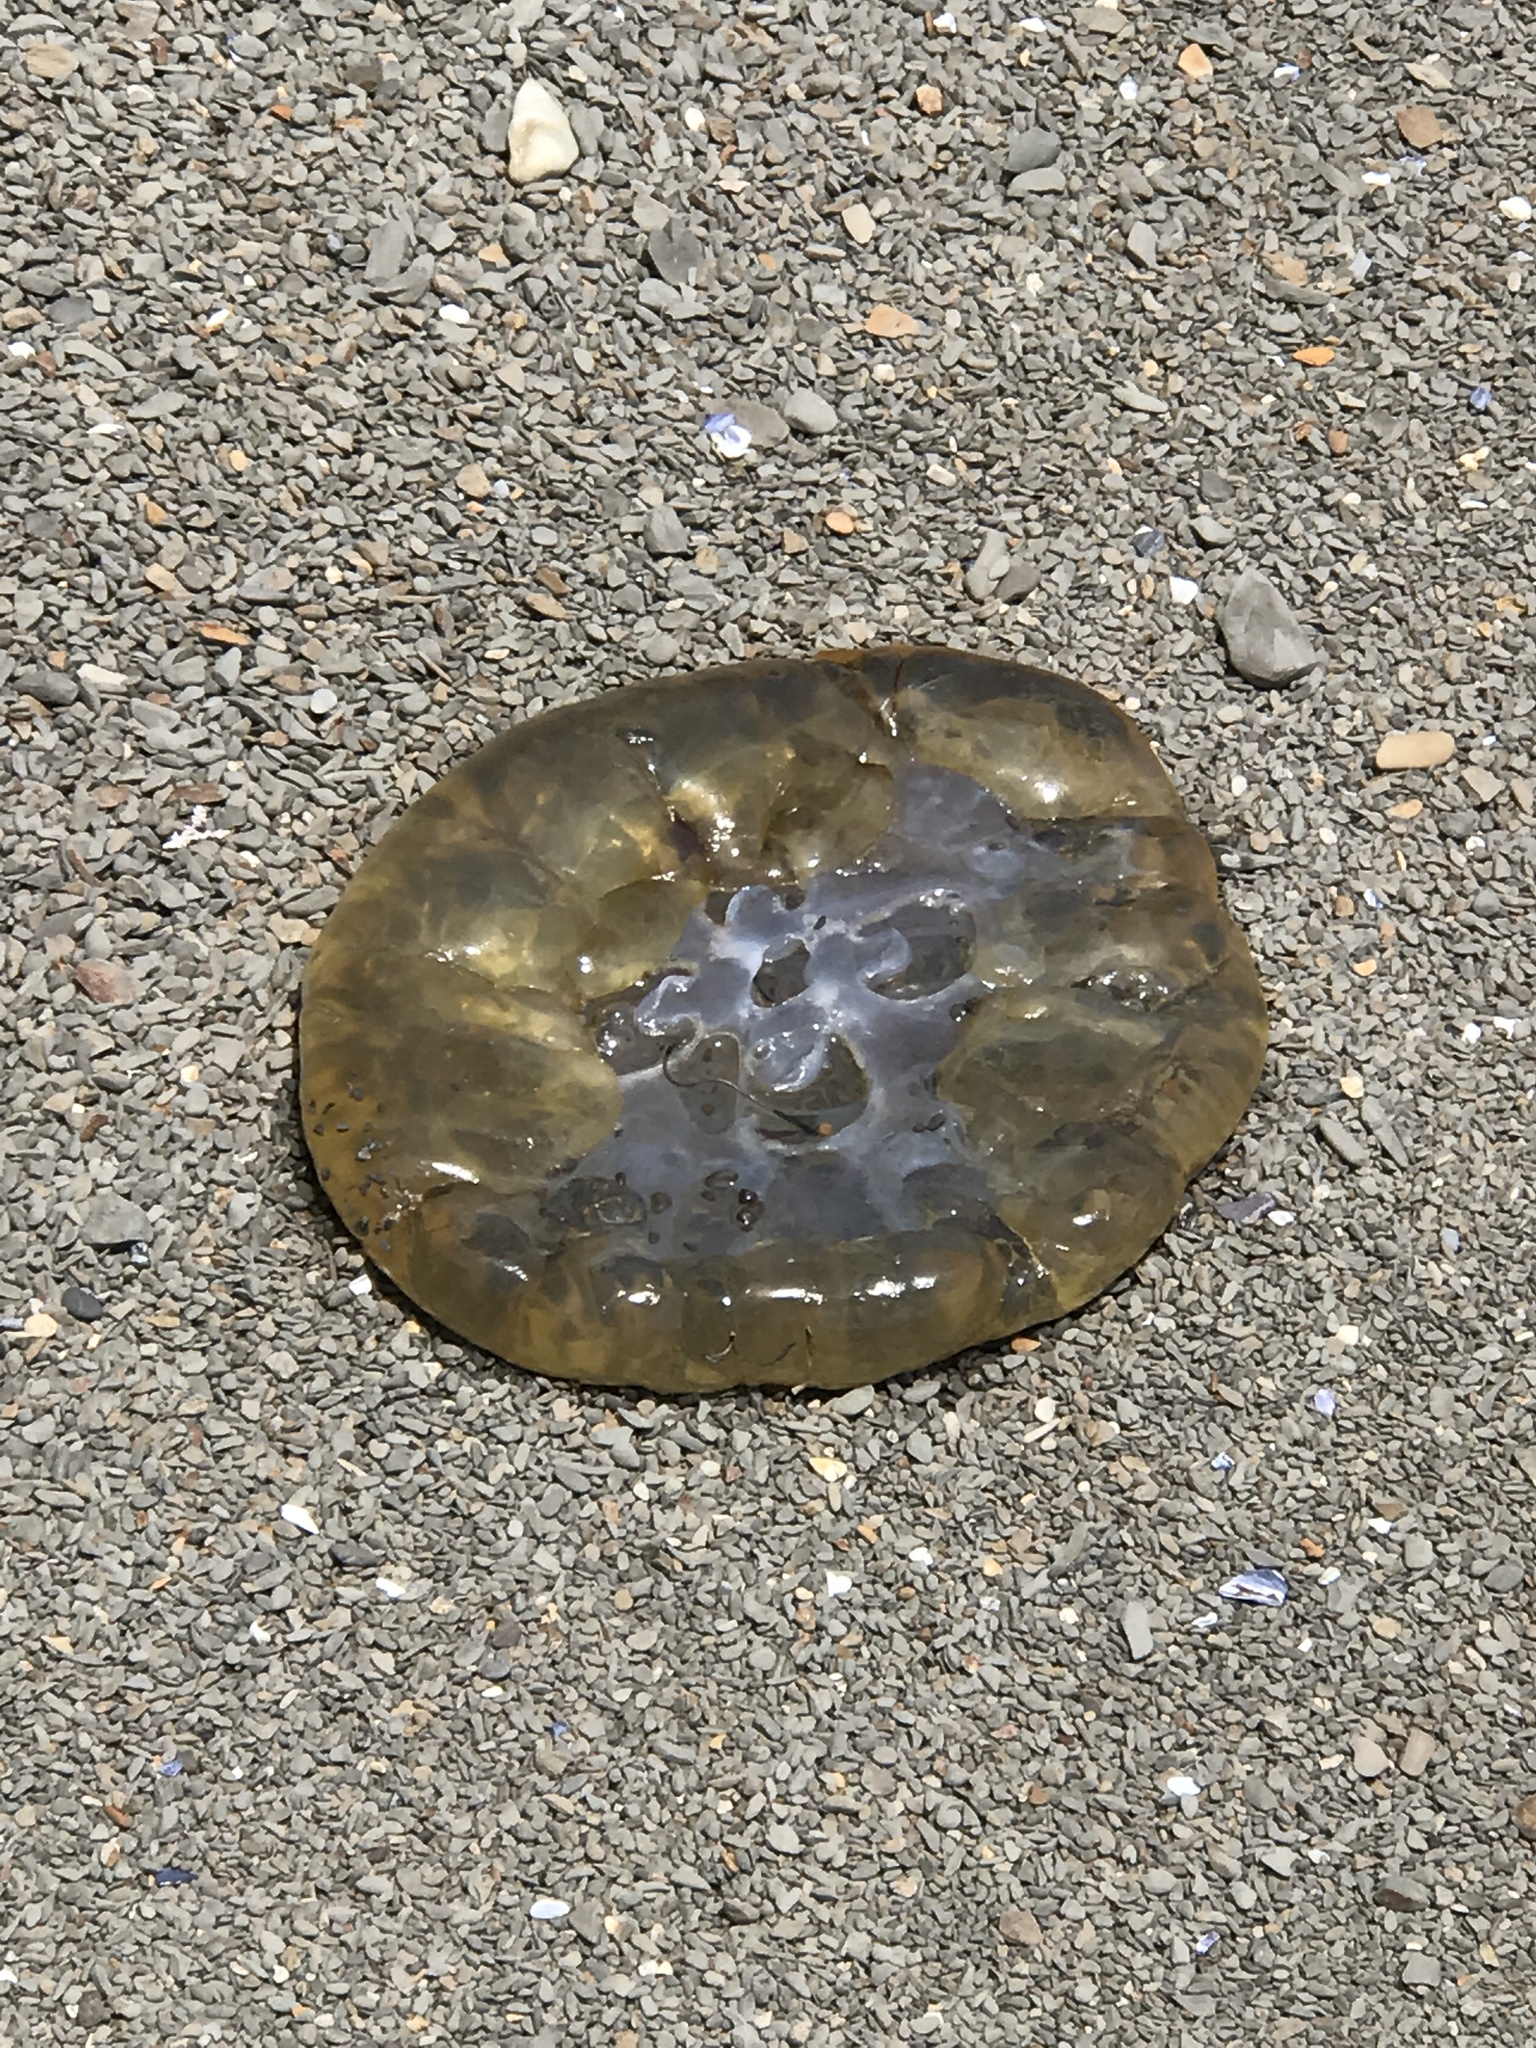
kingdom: Animalia
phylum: Cnidaria
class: Scyphozoa
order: Semaeostomeae
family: Pelagiidae
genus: Chrysaora
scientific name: Chrysaora fuscescens
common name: Sea nettle
